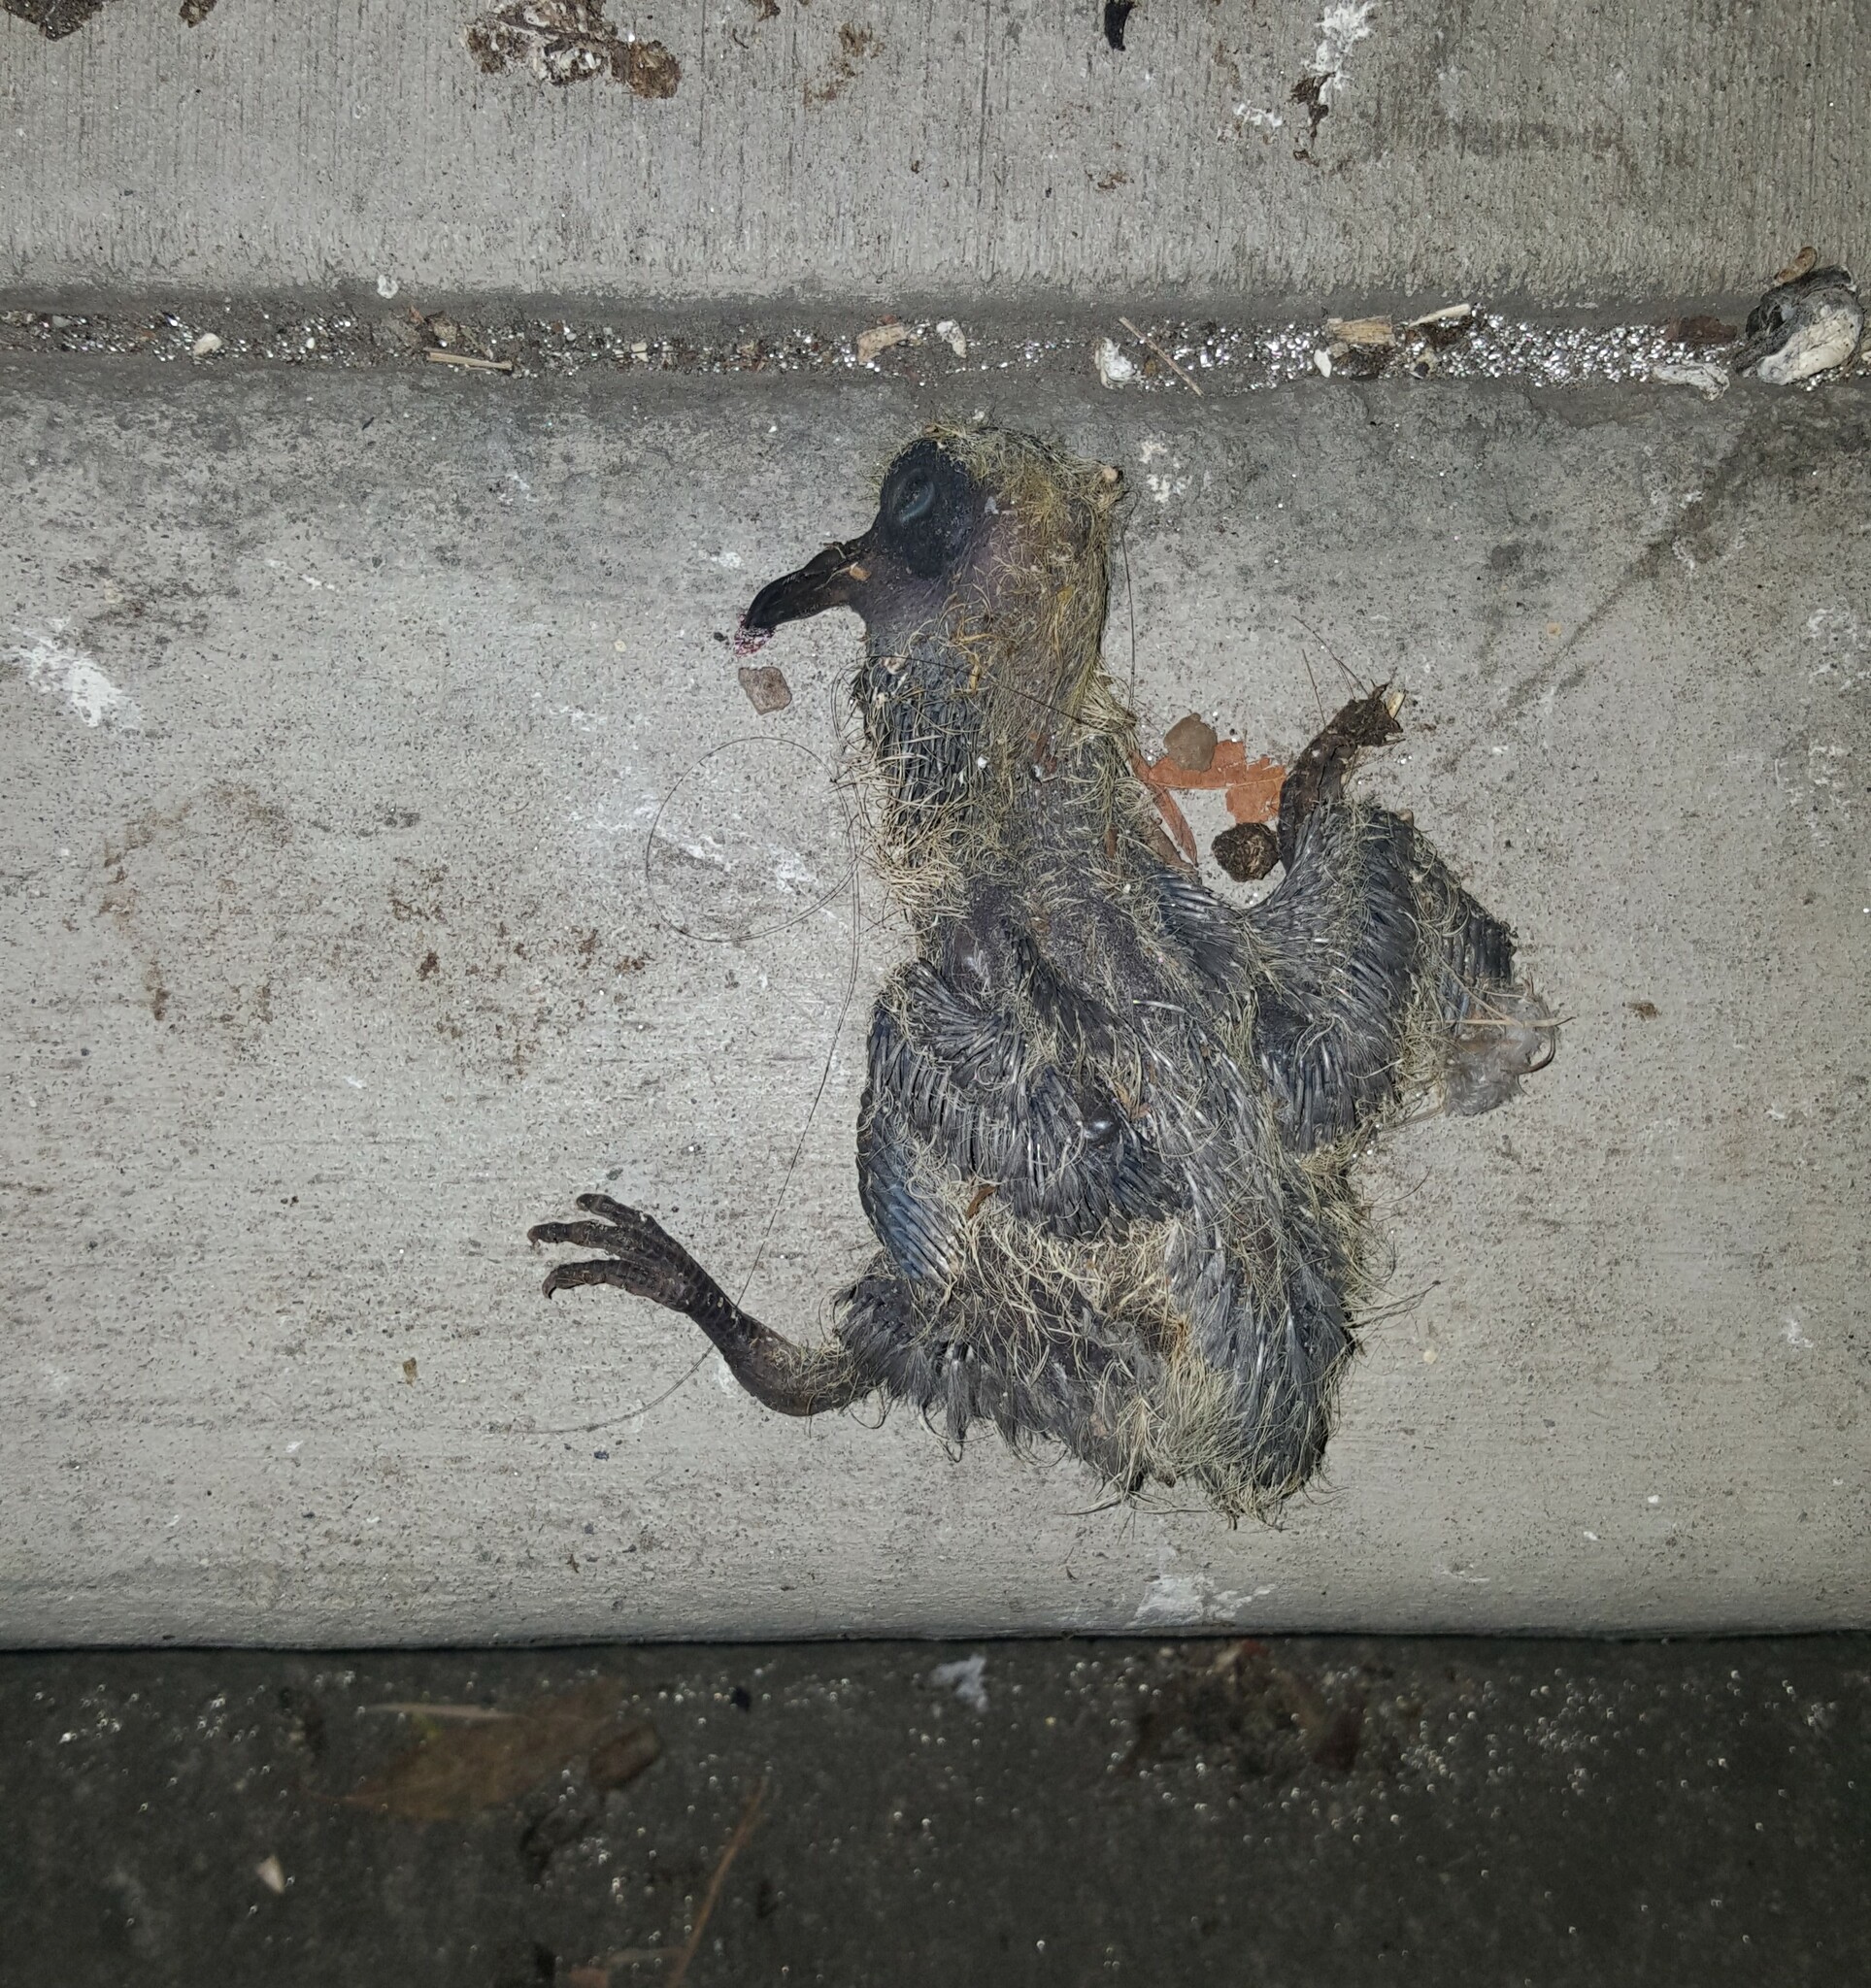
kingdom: Animalia
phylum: Chordata
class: Aves
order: Columbiformes
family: Columbidae
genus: Columba
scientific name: Columba livia
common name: Rock pigeon
